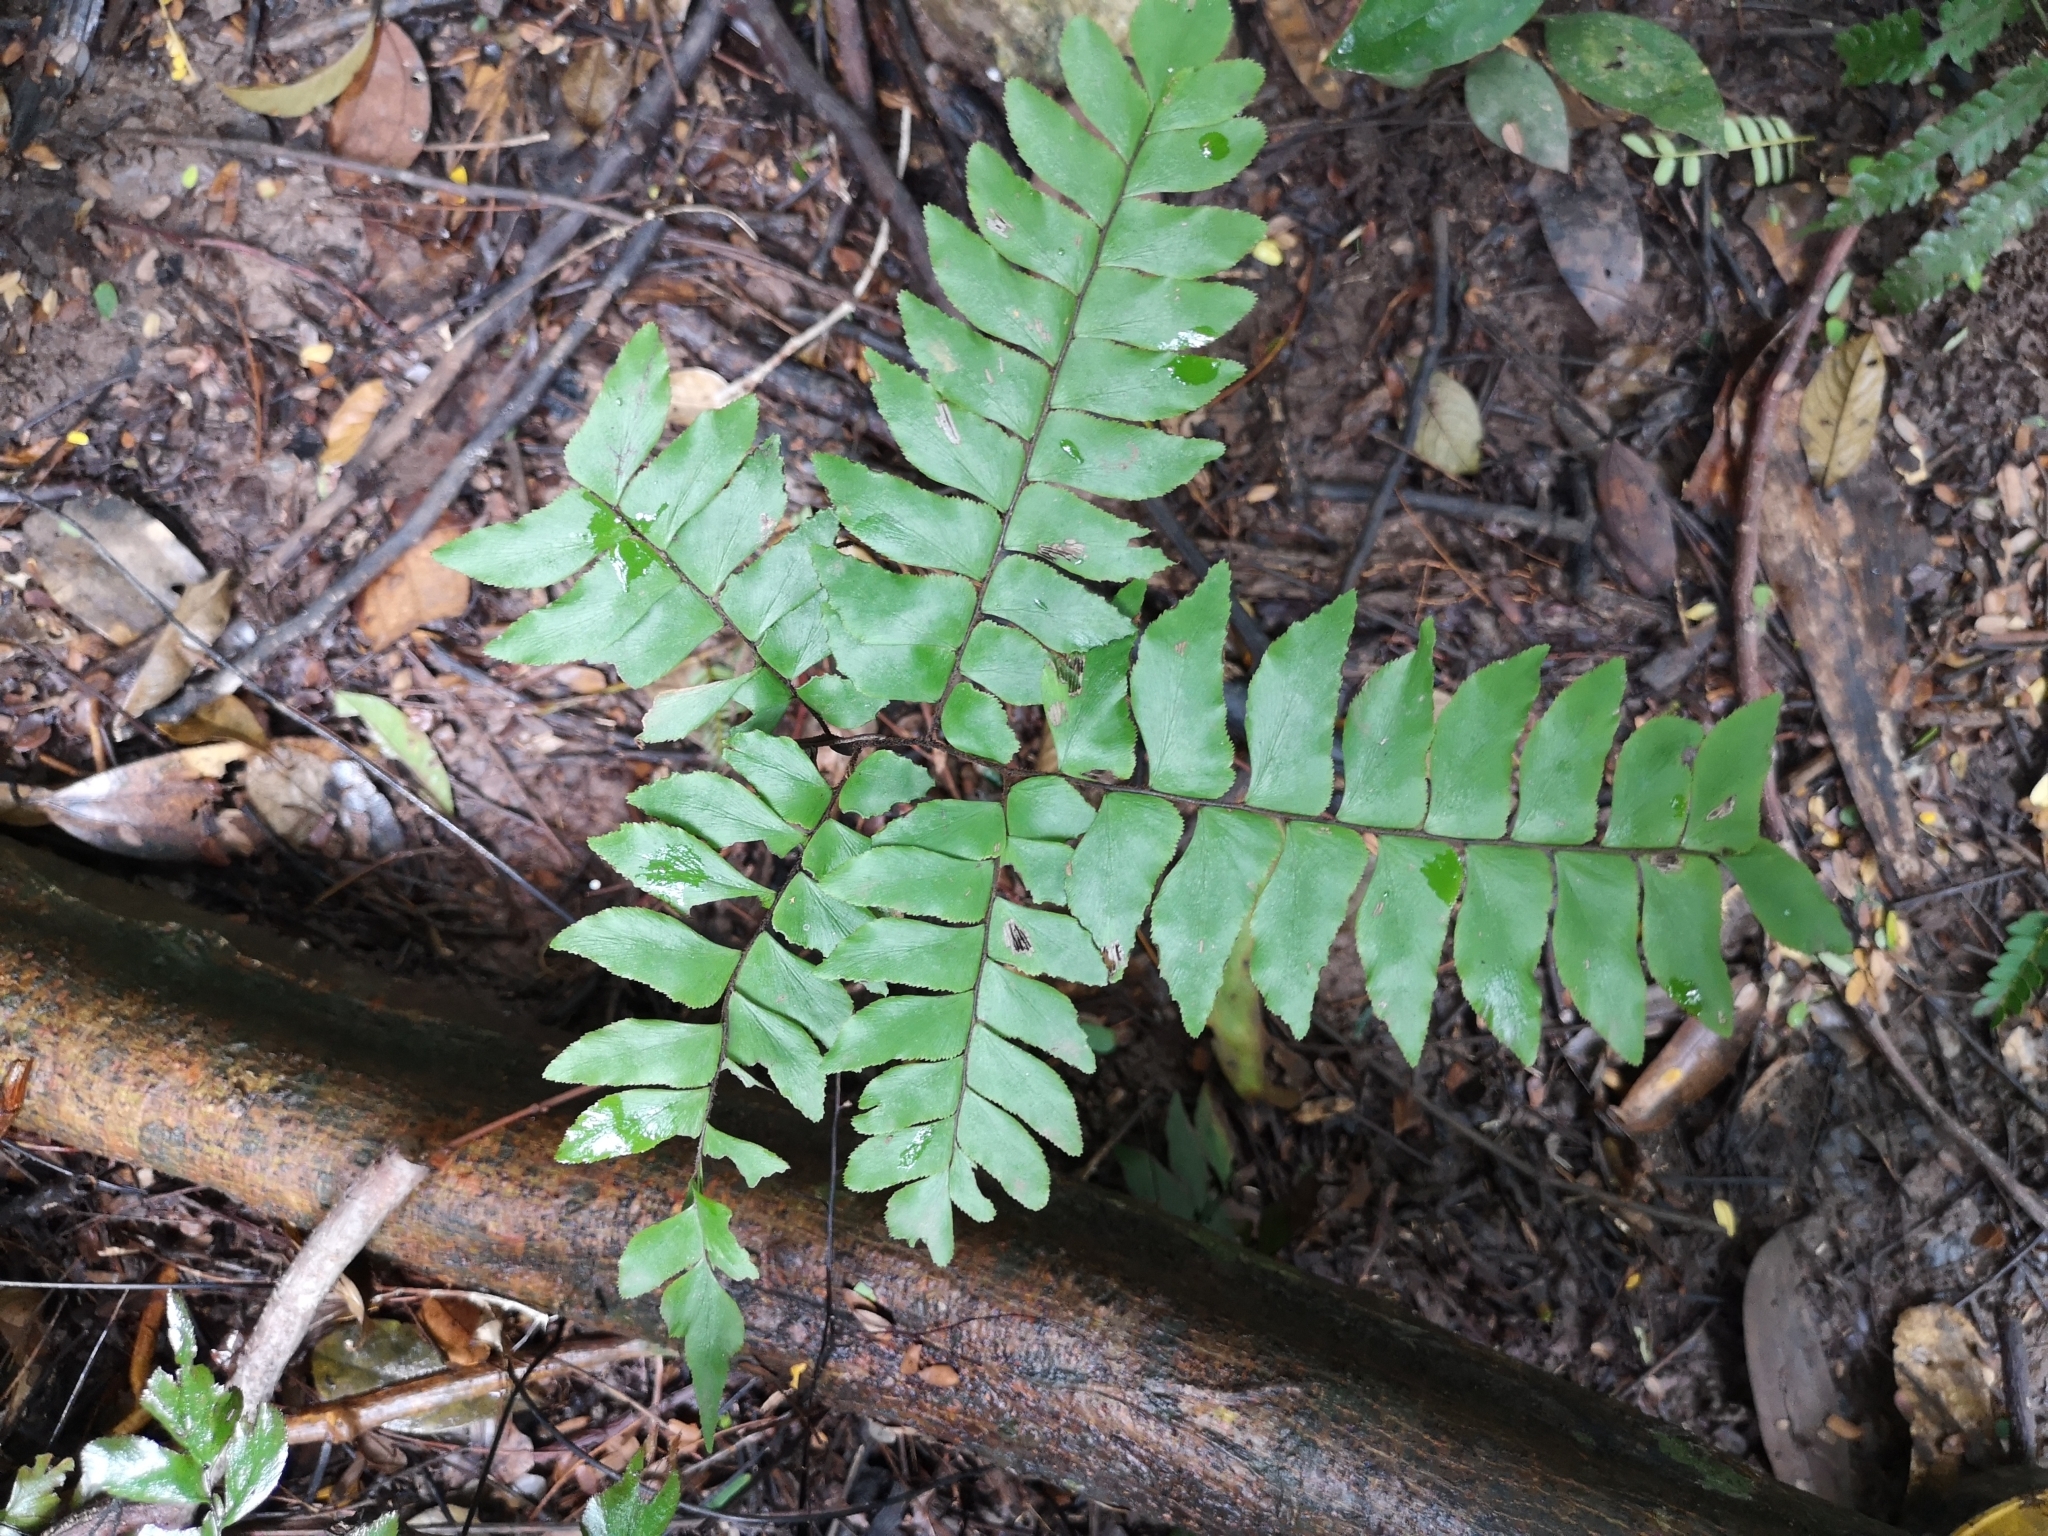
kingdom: Plantae
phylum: Tracheophyta
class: Polypodiopsida
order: Polypodiales
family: Pteridaceae
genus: Adiantum
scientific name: Adiantum latifolium
